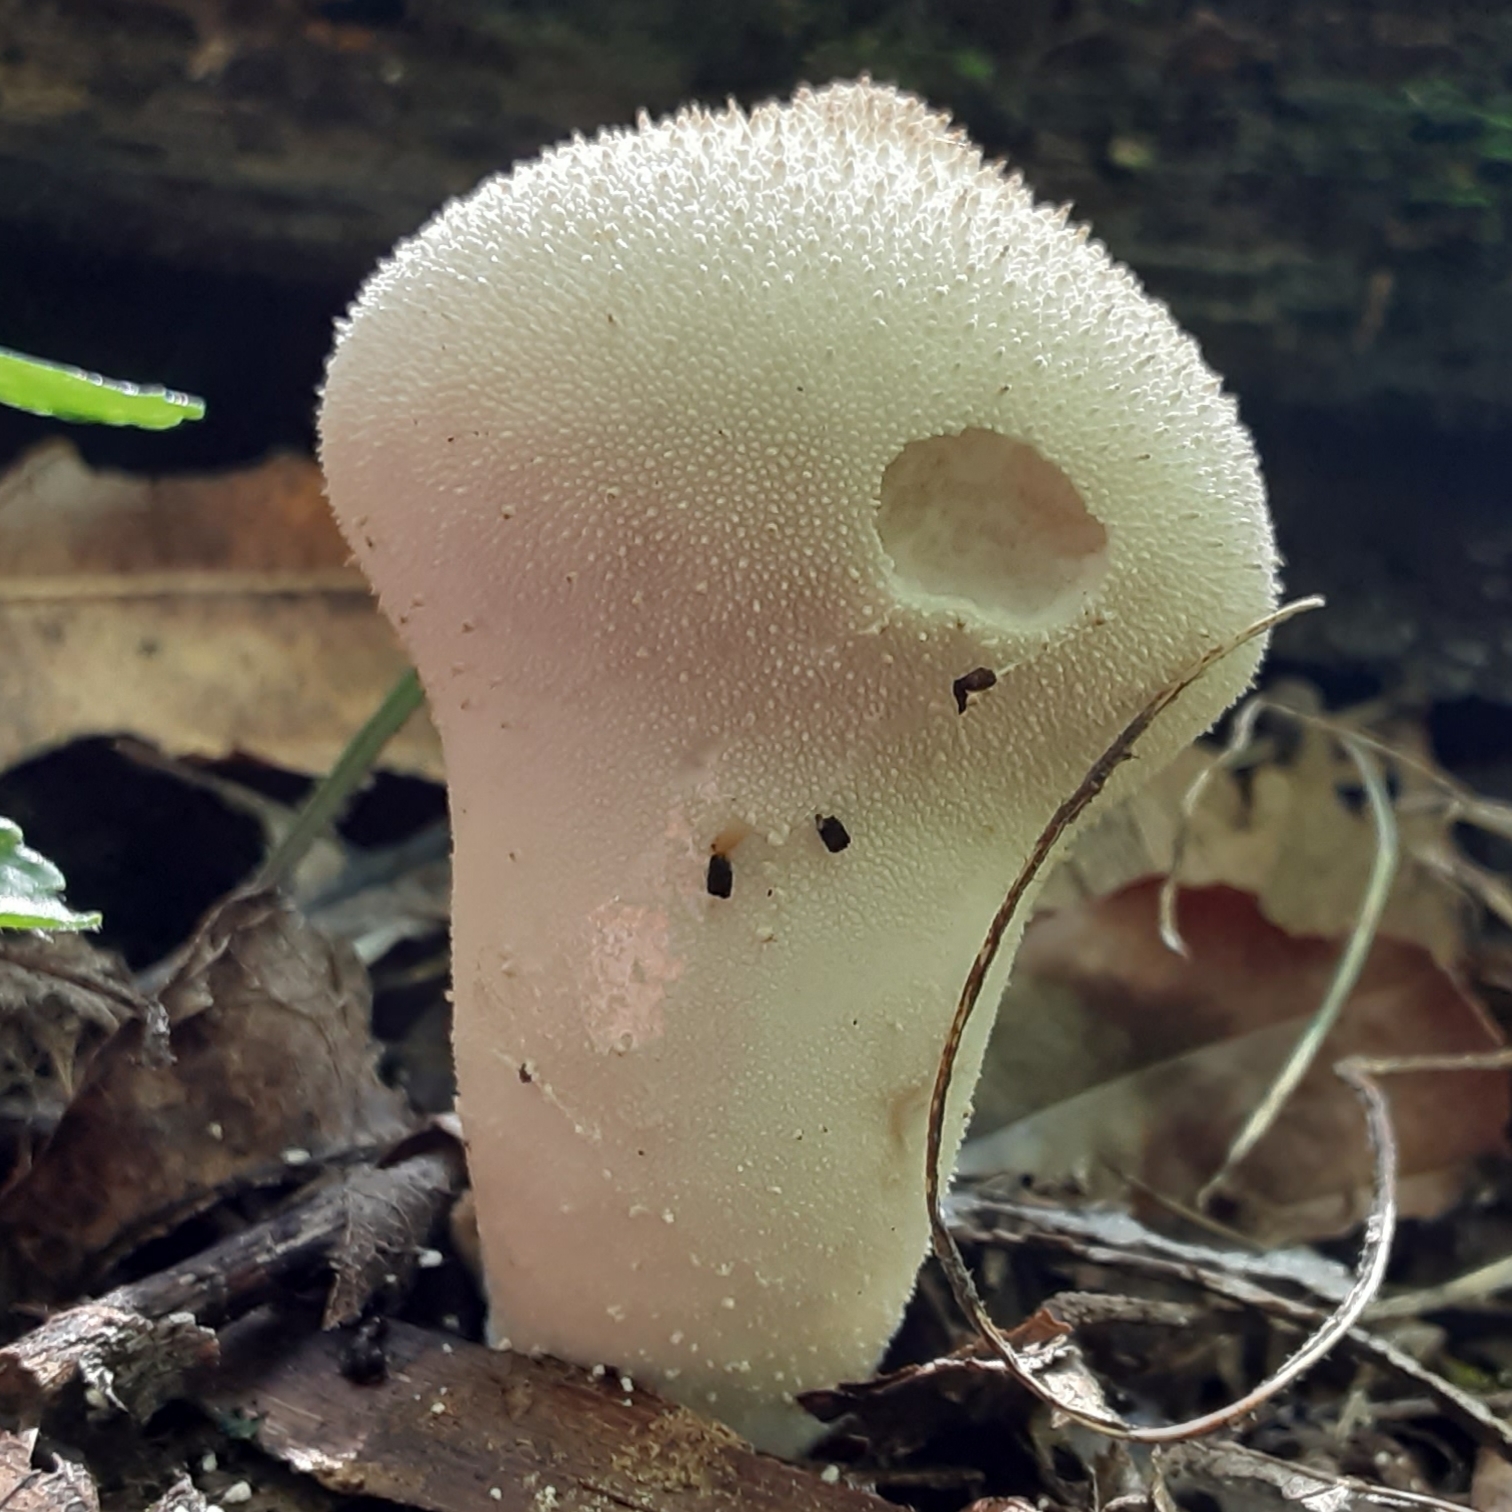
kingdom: Fungi
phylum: Basidiomycota
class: Agaricomycetes
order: Agaricales
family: Lycoperdaceae
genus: Lycoperdon
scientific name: Lycoperdon perlatum
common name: Common puffball
